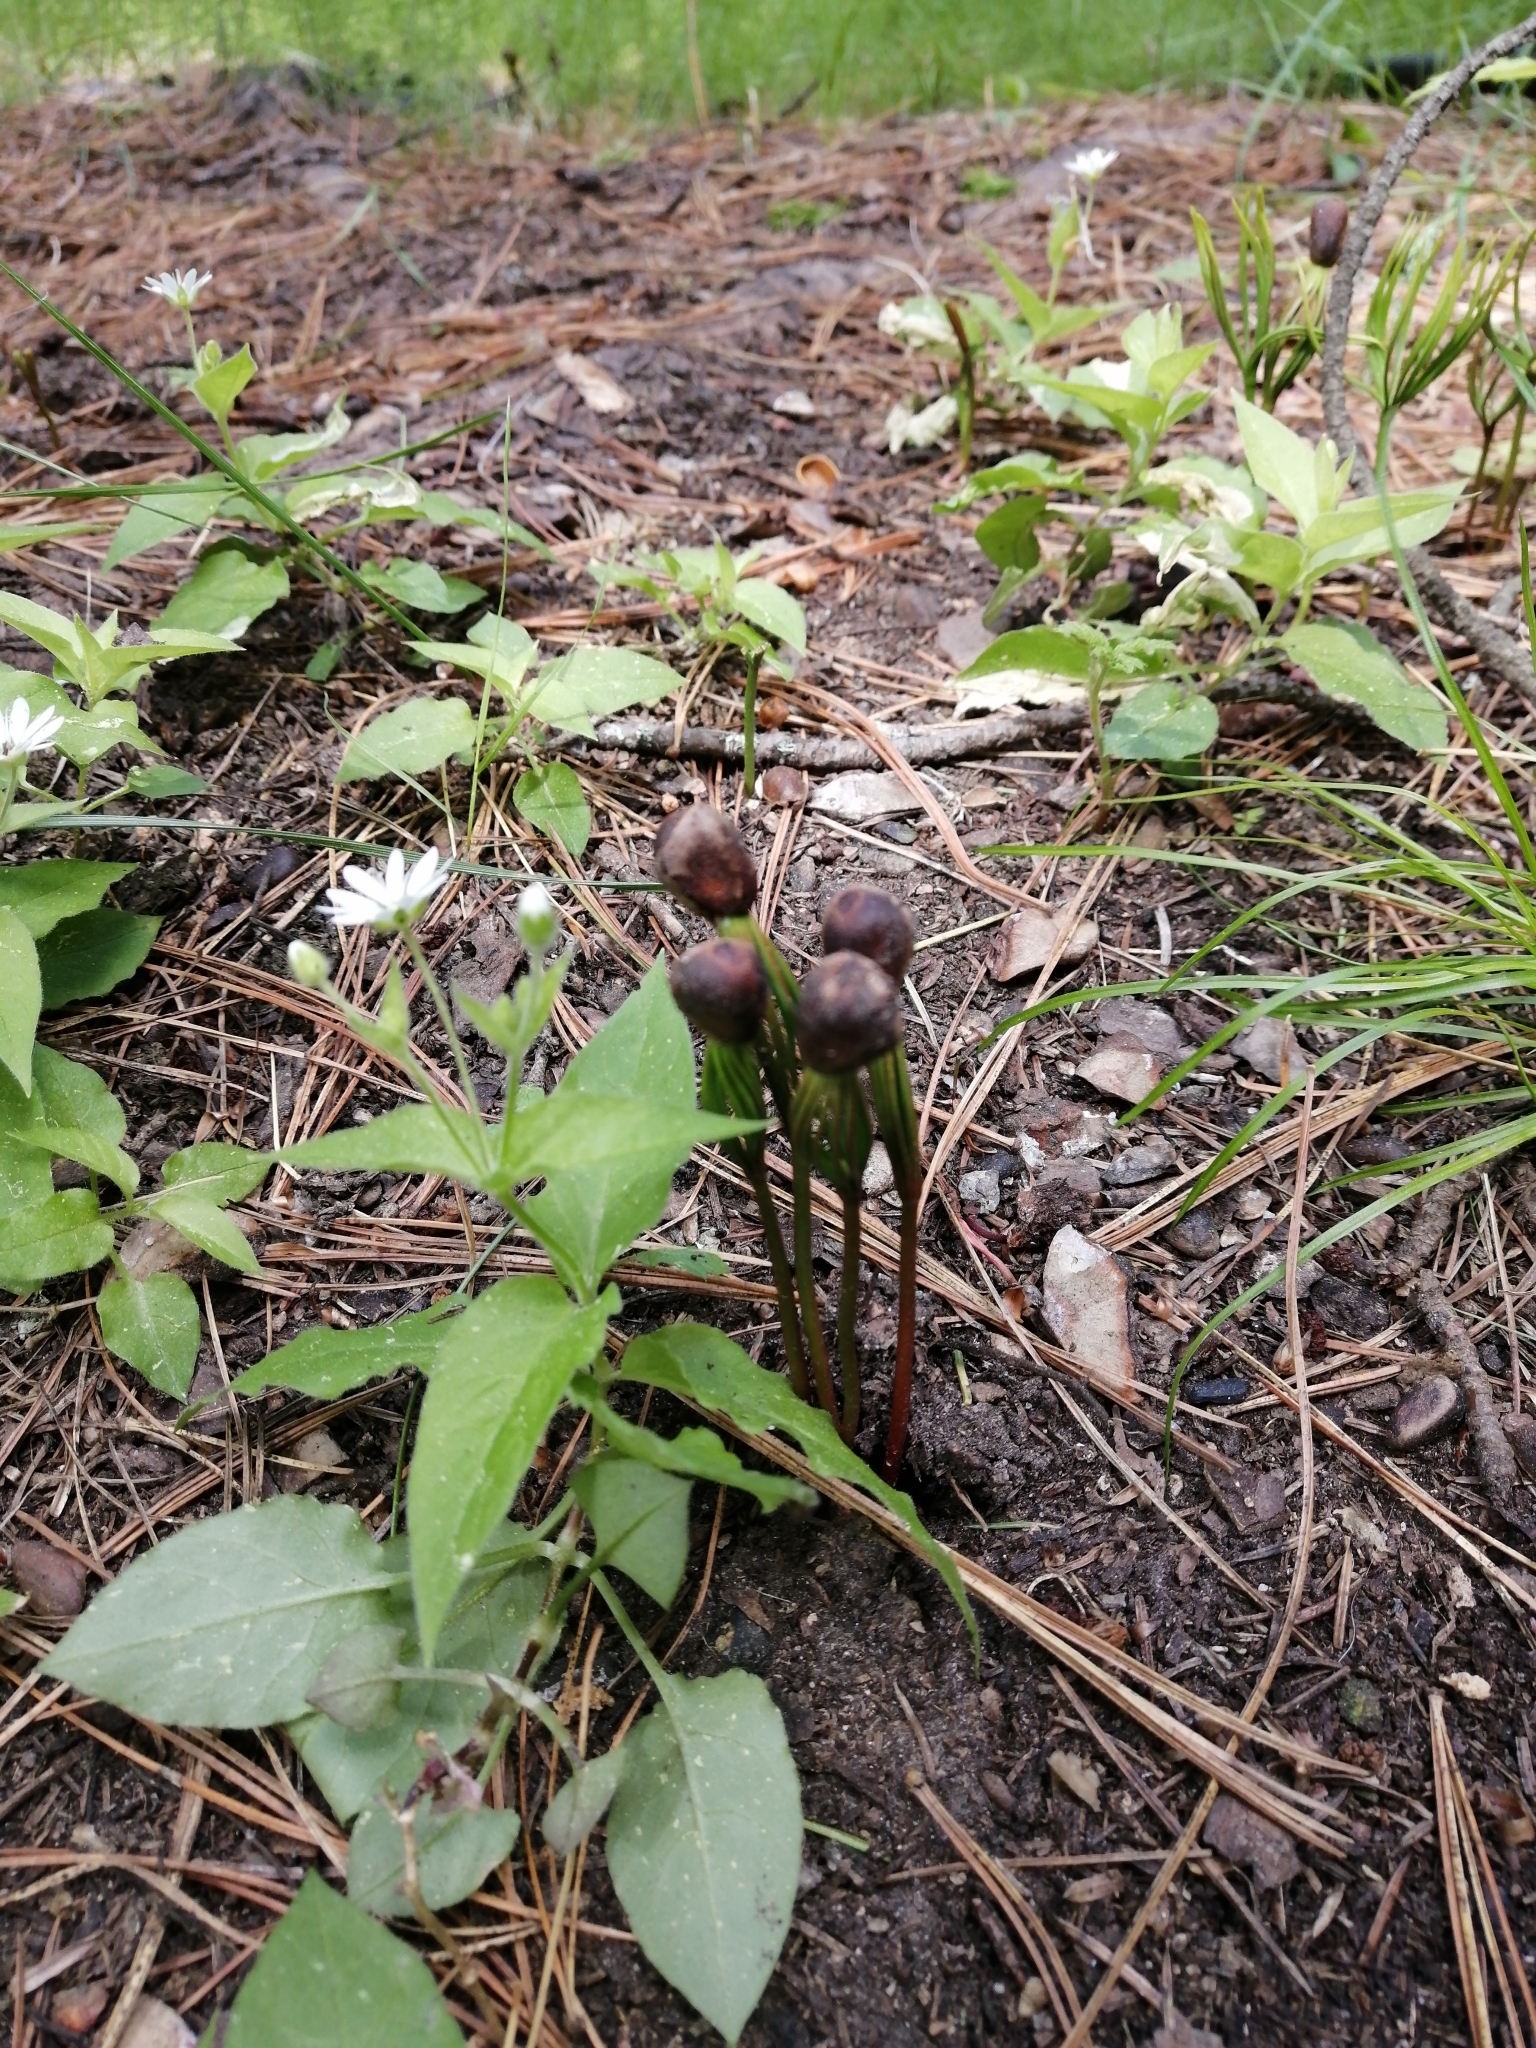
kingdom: Plantae
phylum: Tracheophyta
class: Pinopsida
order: Pinales
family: Pinaceae
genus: Pinus
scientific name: Pinus sibirica
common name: Siberian pine
